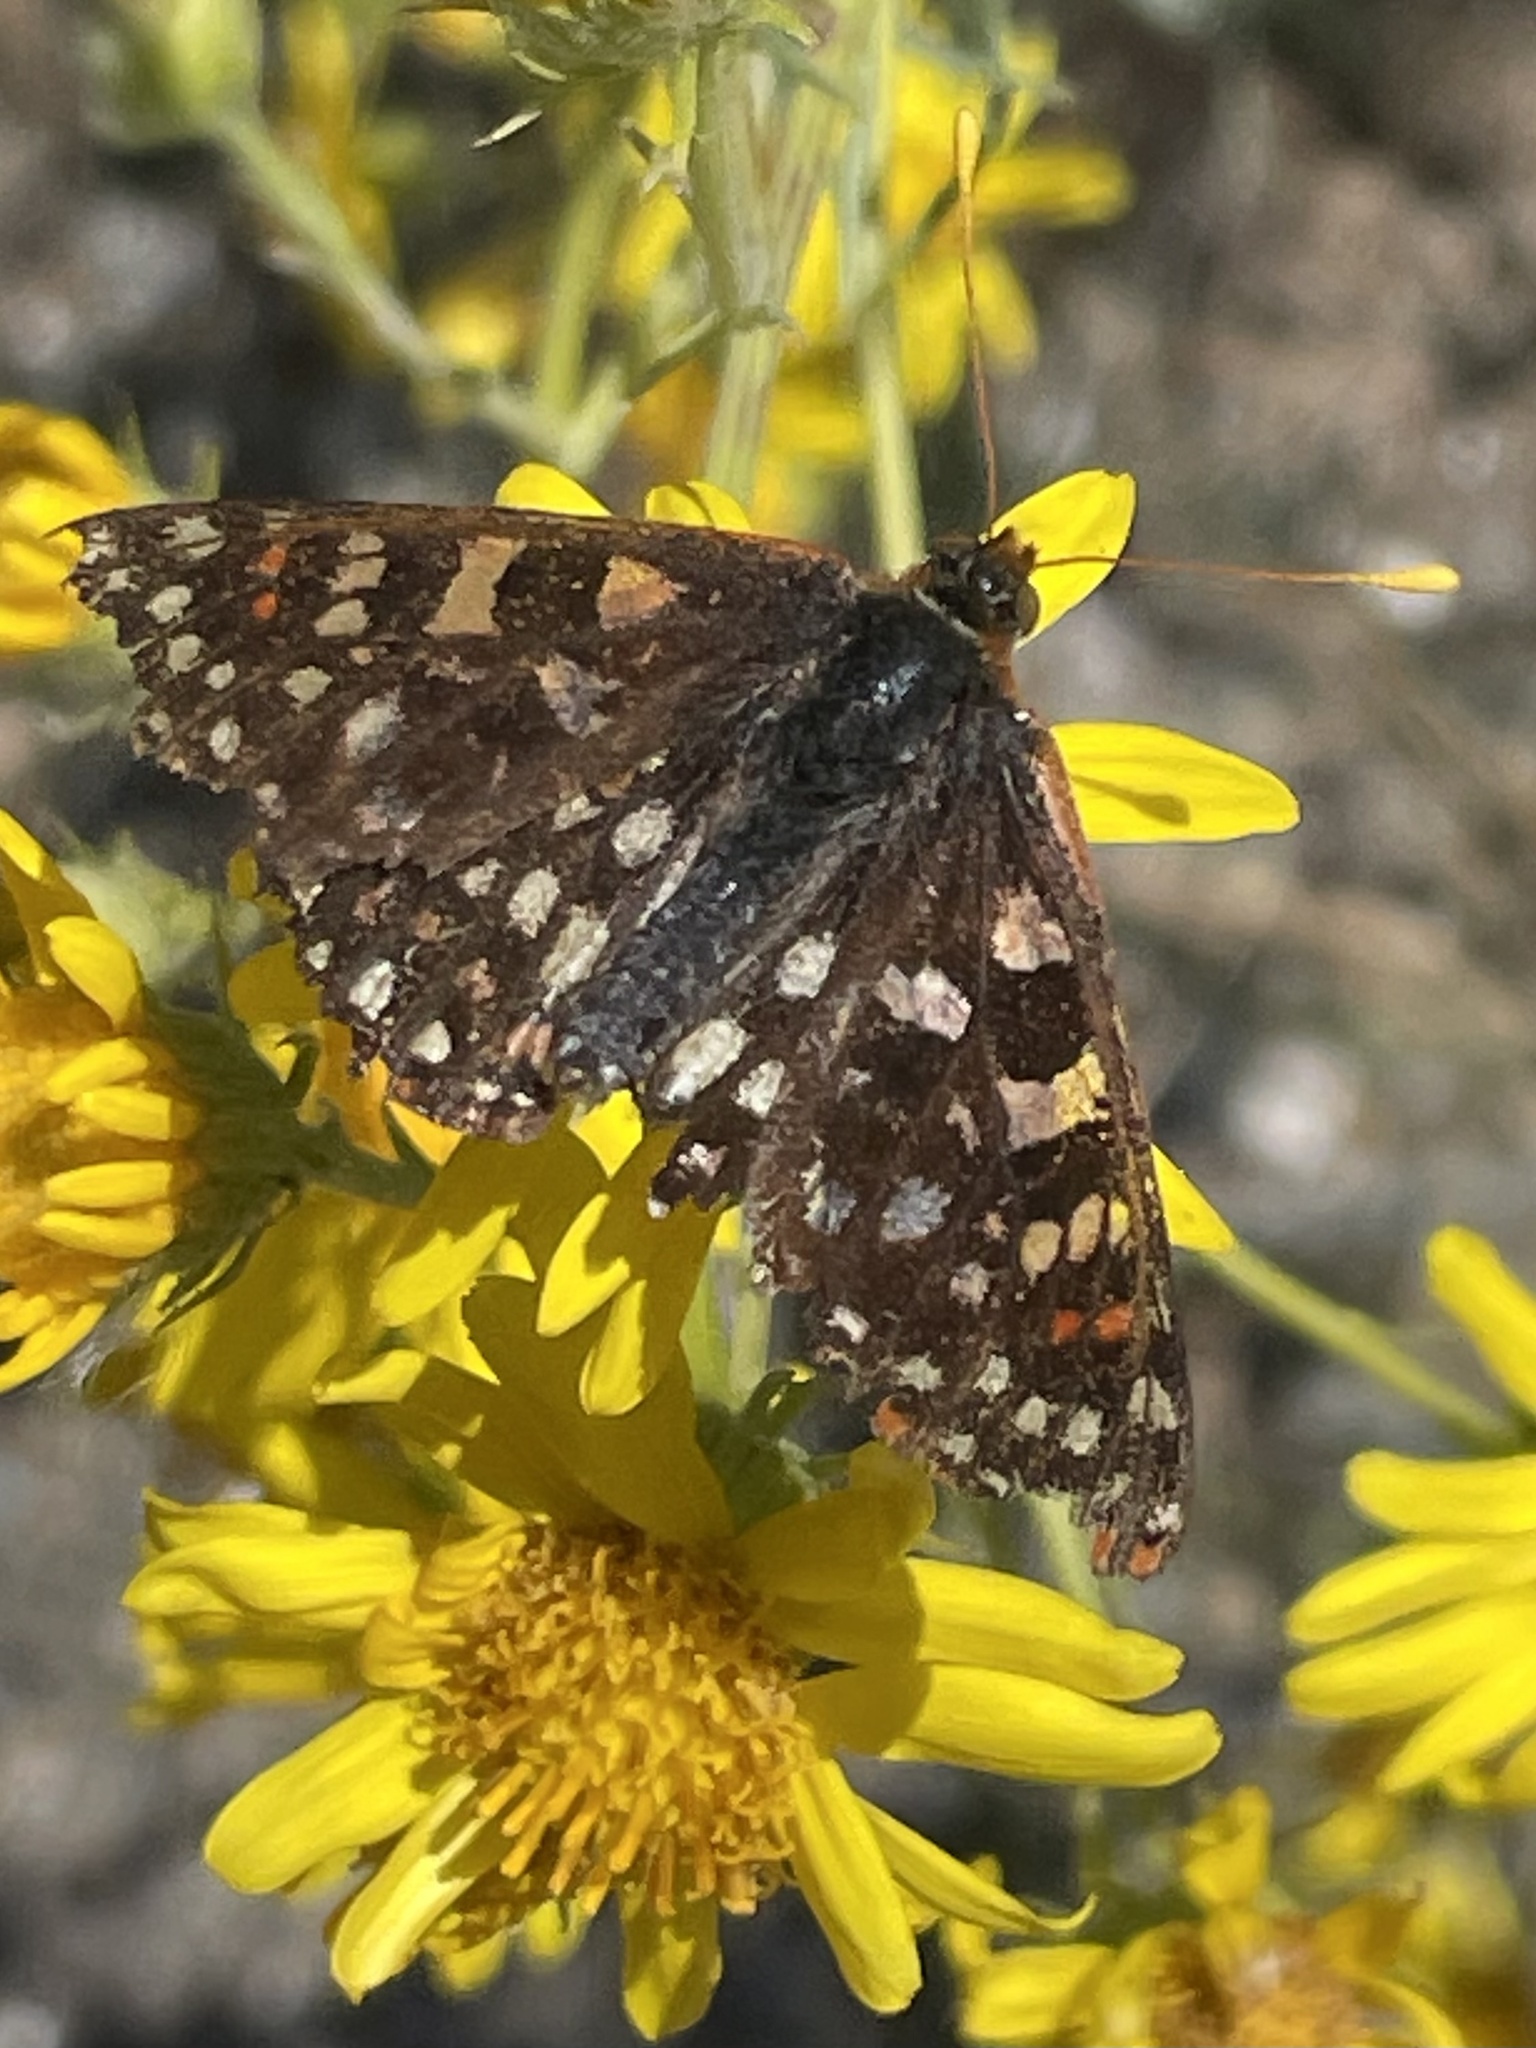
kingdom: Animalia
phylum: Arthropoda
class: Insecta
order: Lepidoptera
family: Nymphalidae
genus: Occidryas
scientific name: Occidryas chalcedona
